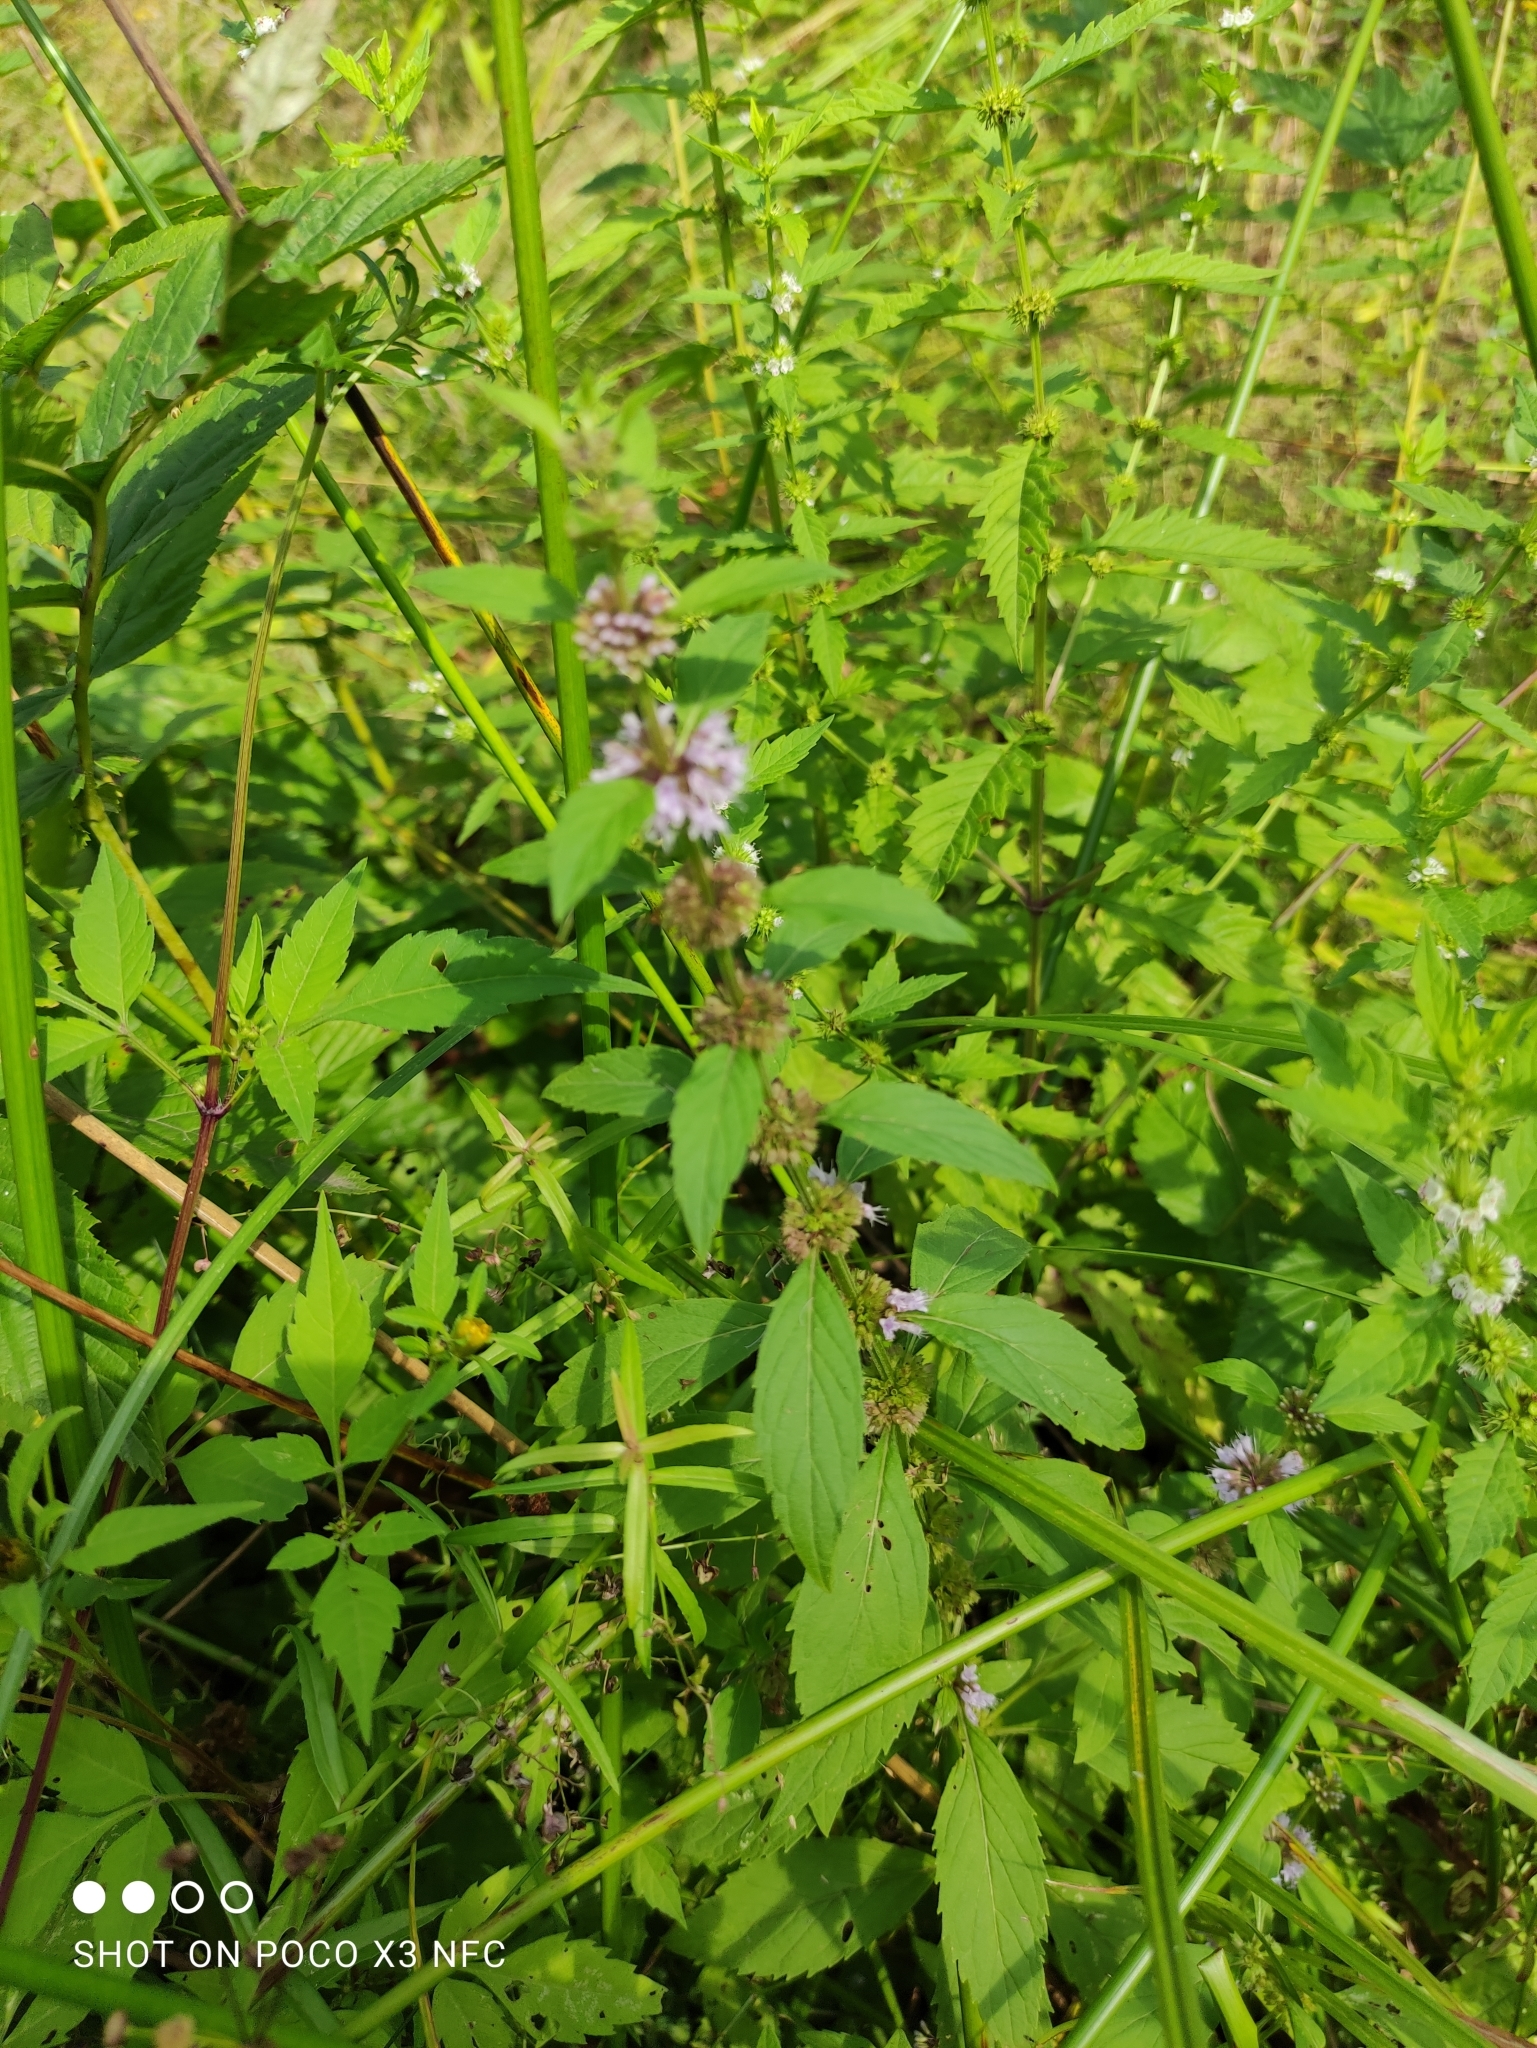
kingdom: Plantae
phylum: Tracheophyta
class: Magnoliopsida
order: Lamiales
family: Lamiaceae
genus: Mentha
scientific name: Mentha arvensis
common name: Corn mint
